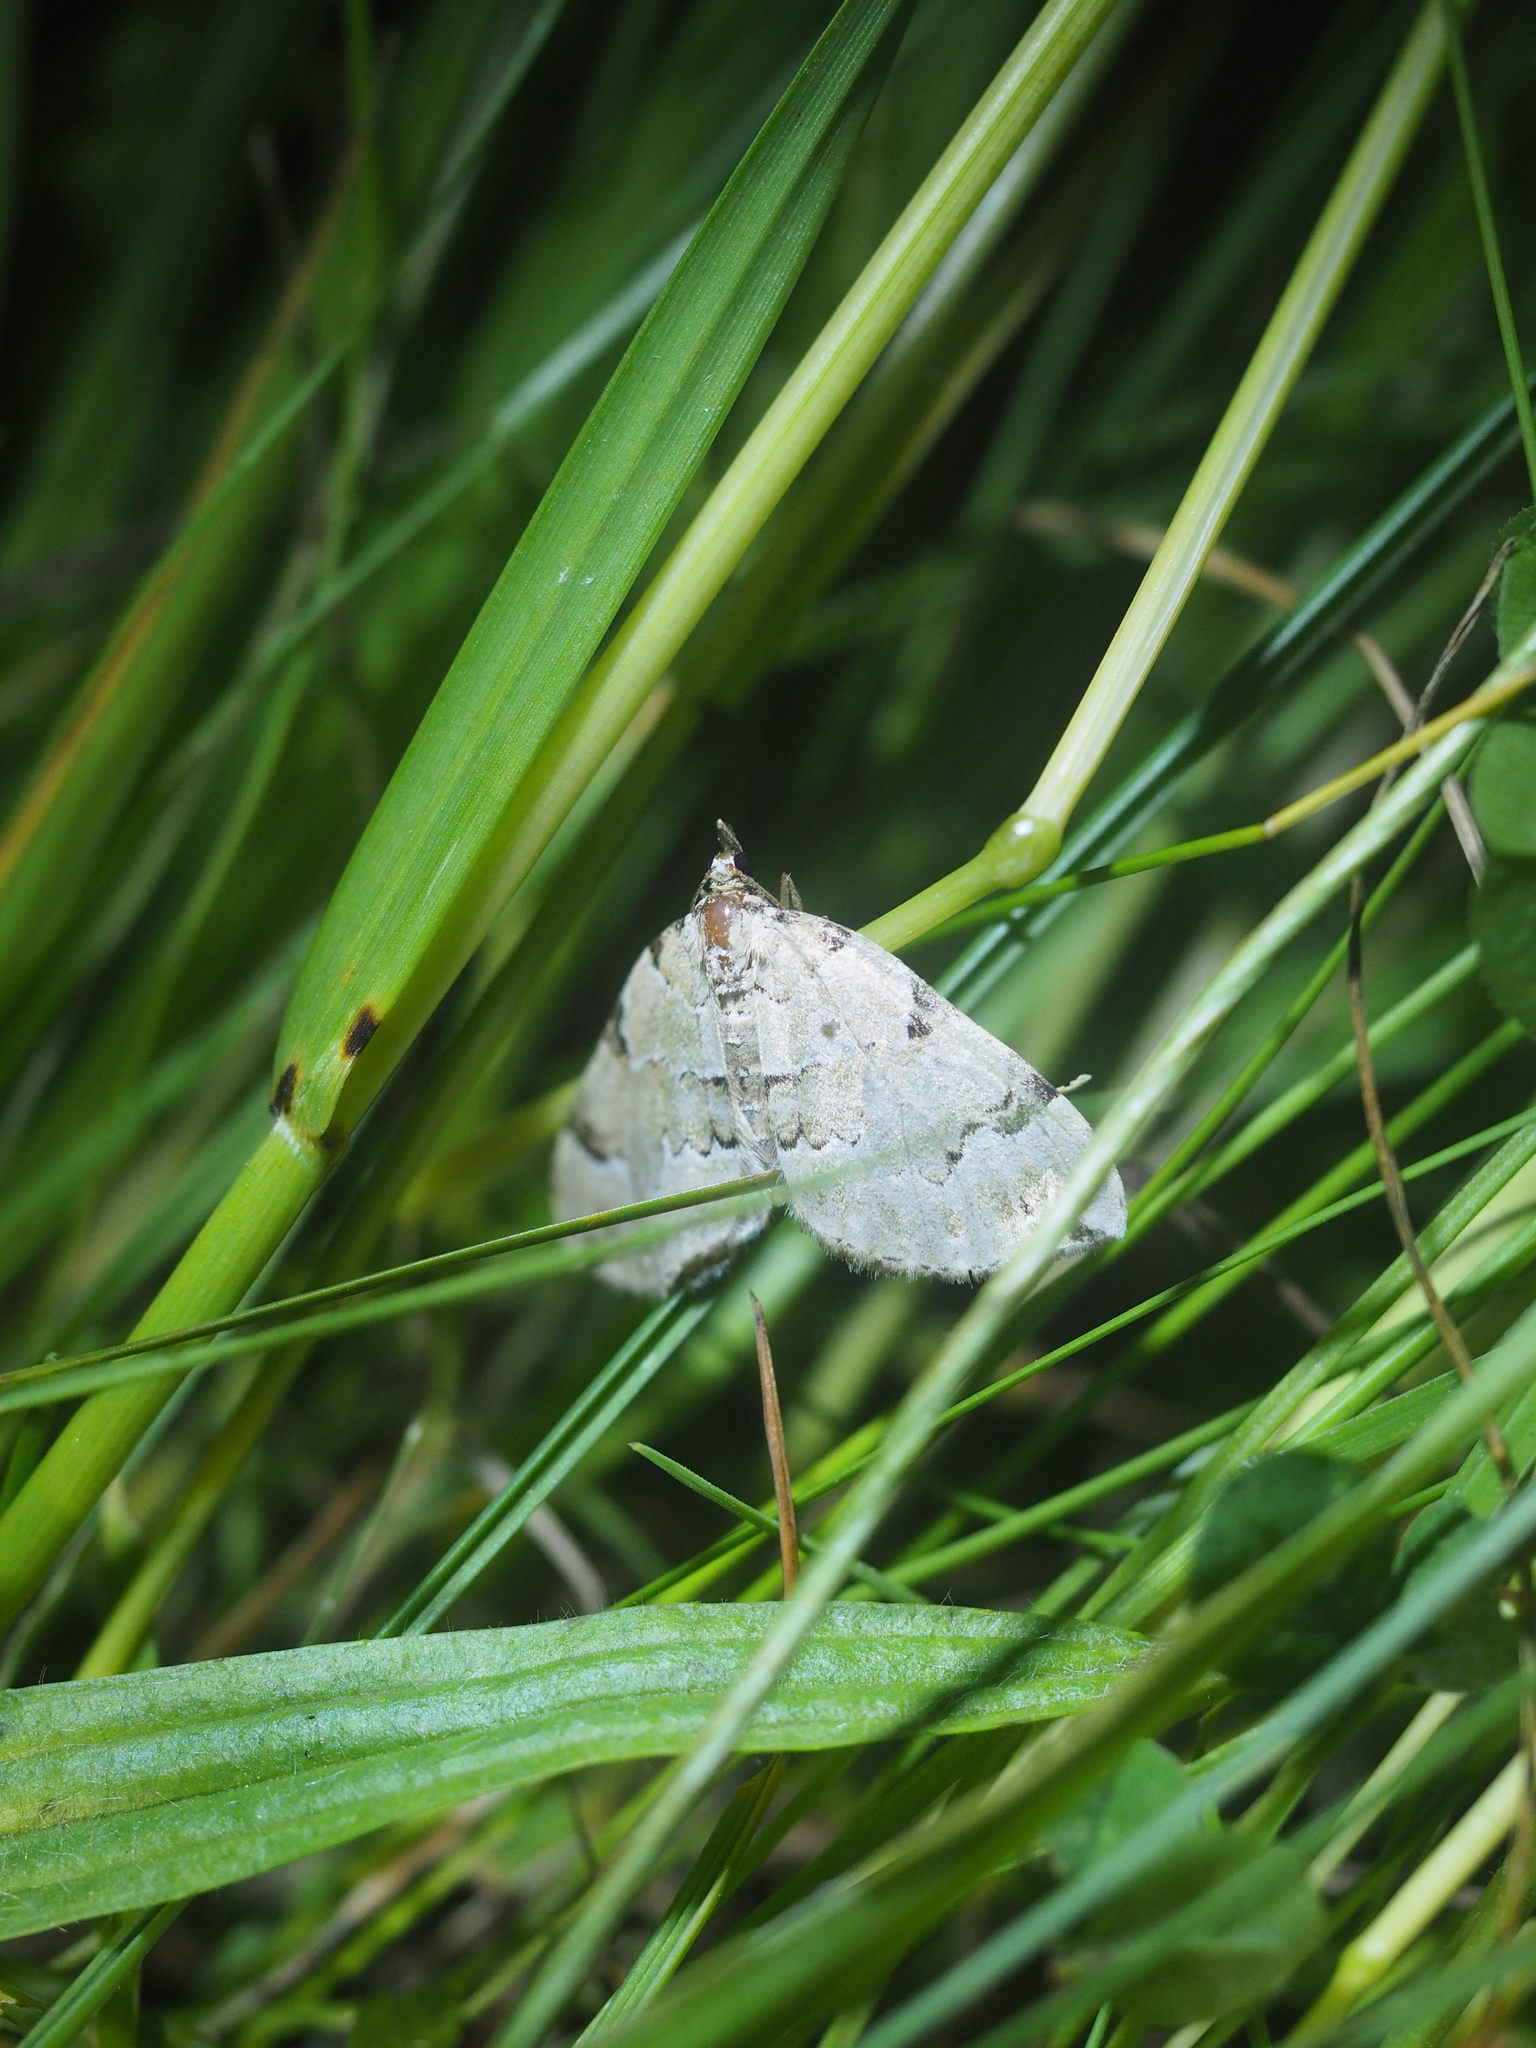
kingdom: Animalia
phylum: Arthropoda
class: Insecta
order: Lepidoptera
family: Geometridae
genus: Colostygia
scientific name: Colostygia pectinataria
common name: Green carpet
